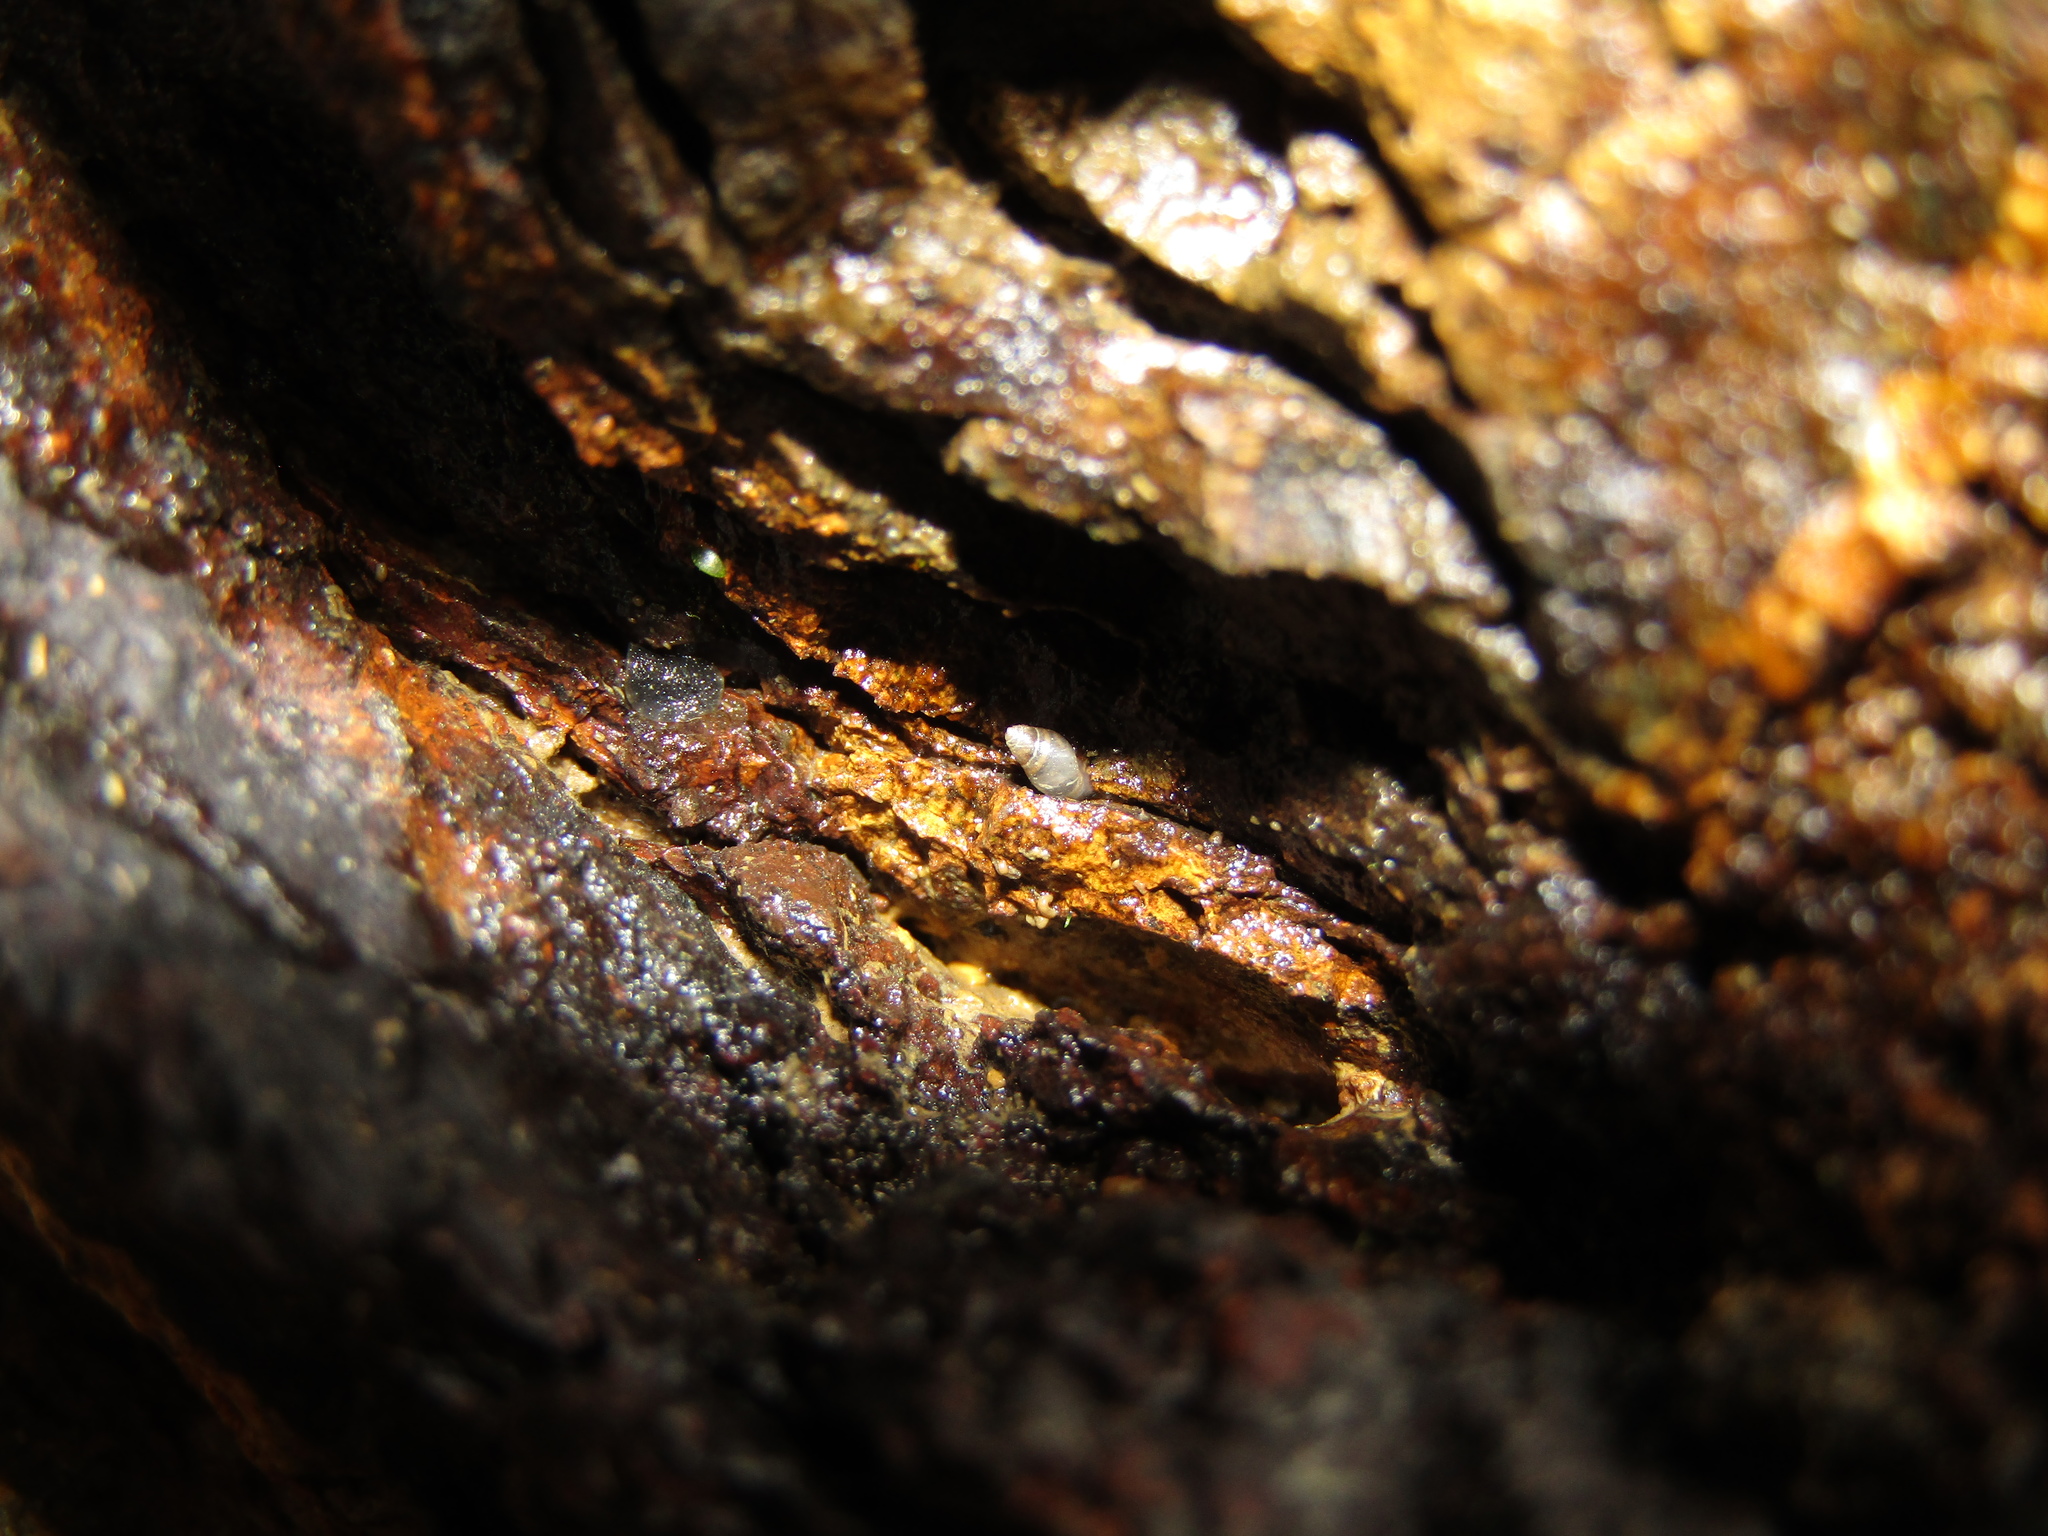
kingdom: Animalia
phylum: Mollusca
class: Gastropoda
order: Ellobiida
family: Ellobiidae
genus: Leuconopsis
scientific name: Leuconopsis obsoleta
